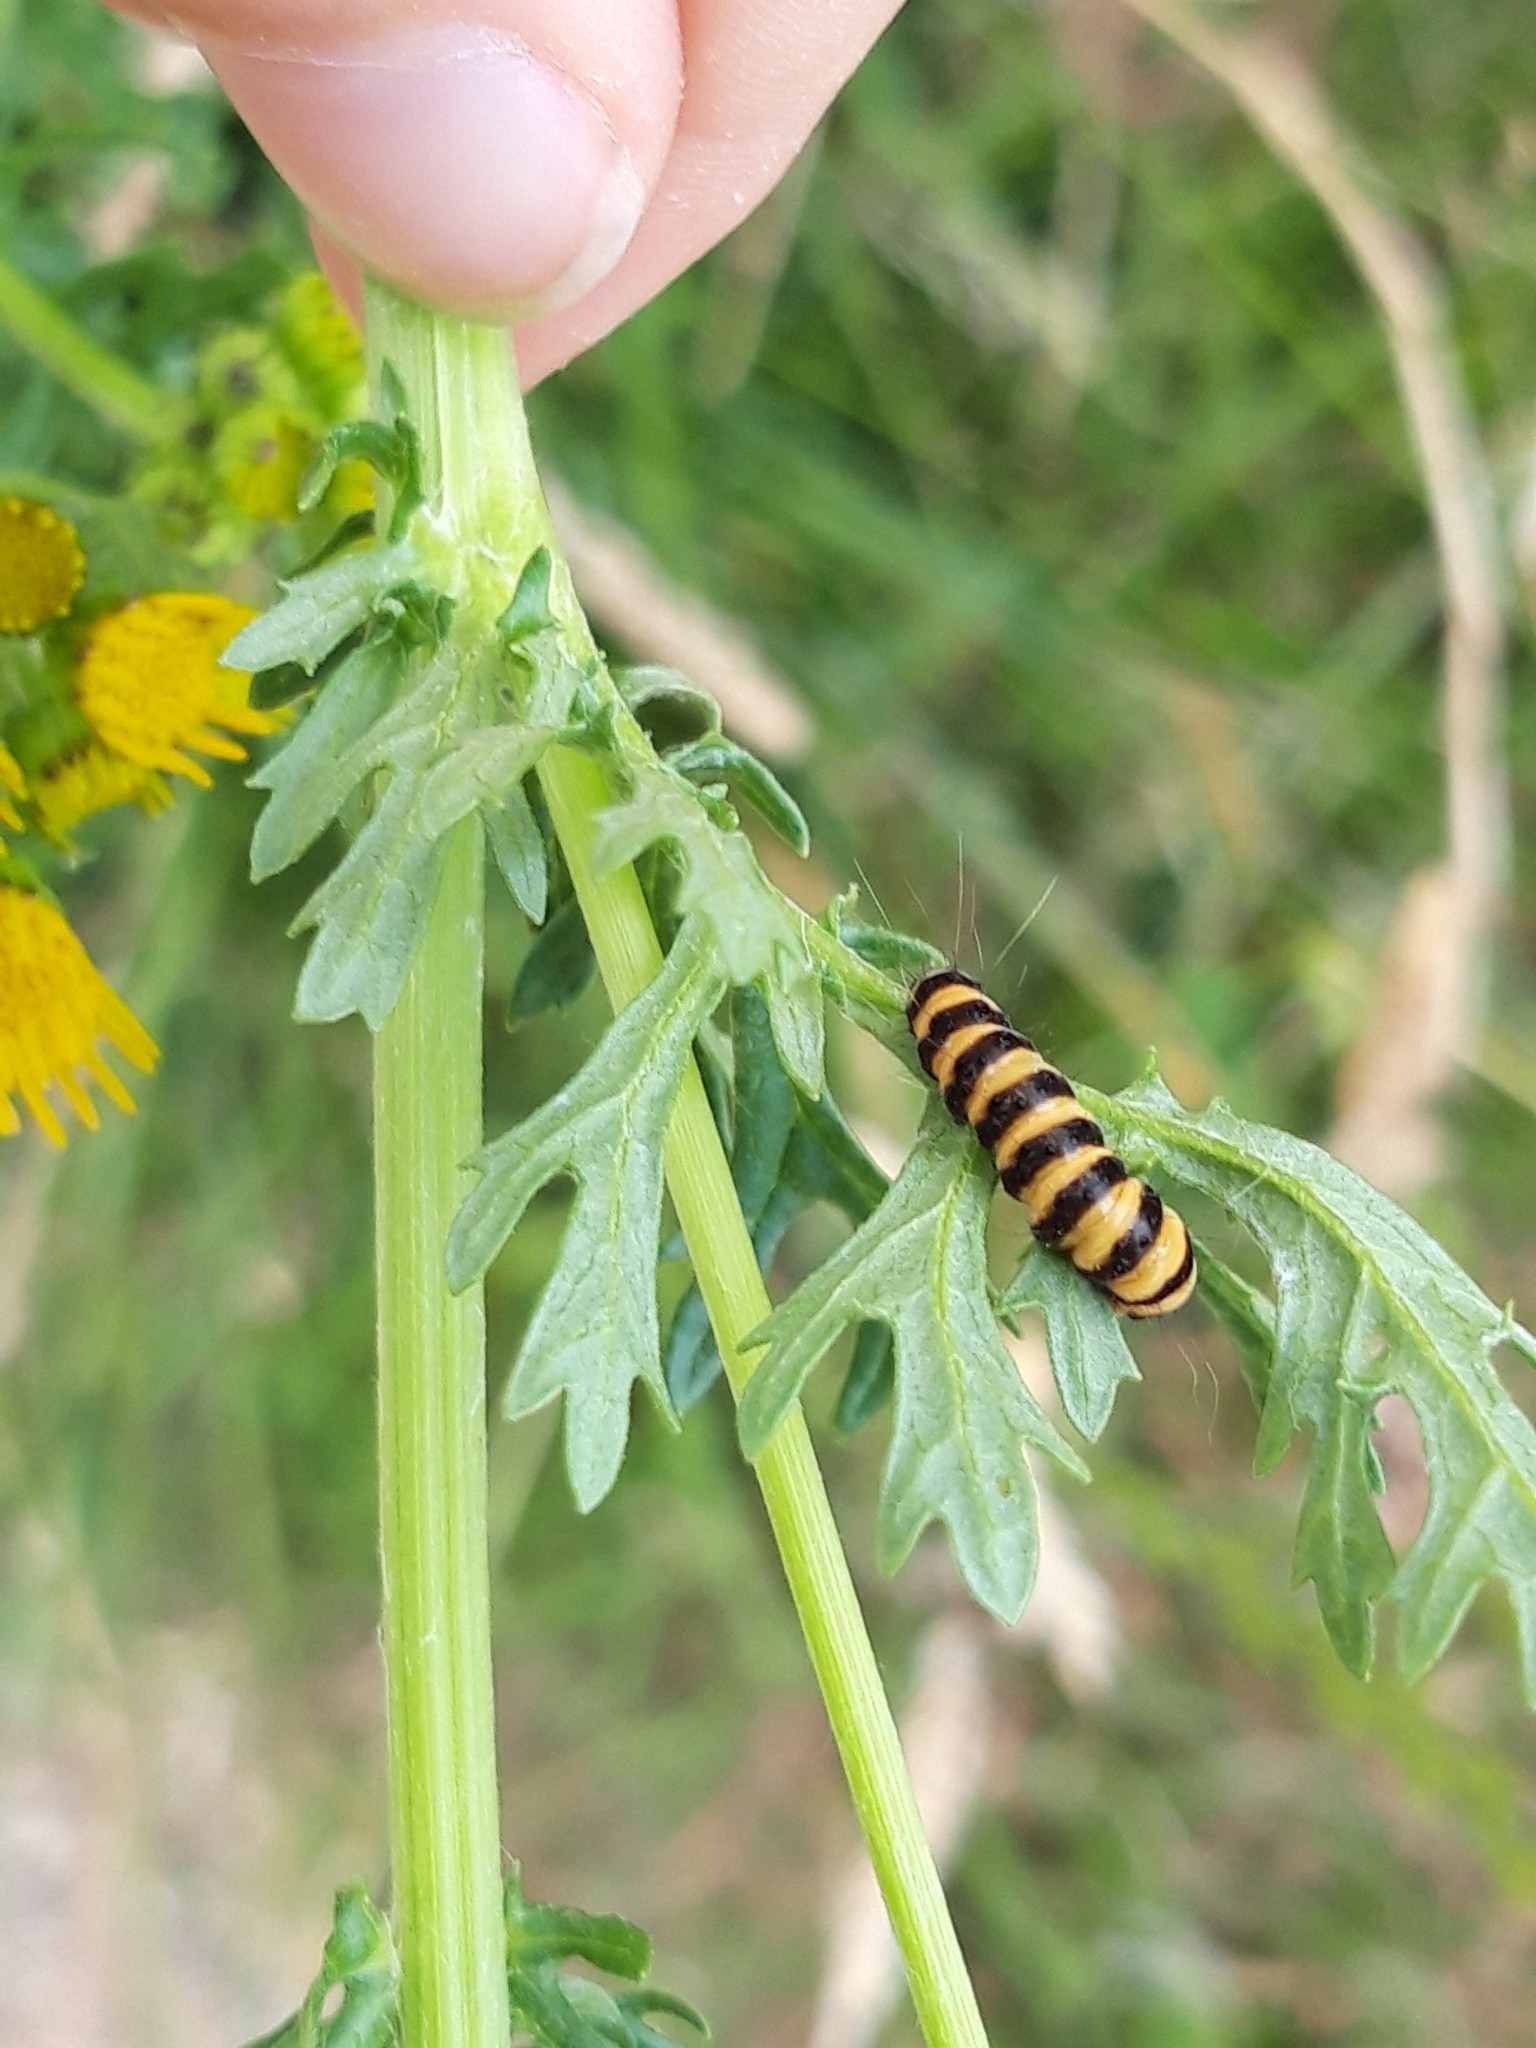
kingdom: Animalia
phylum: Arthropoda
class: Insecta
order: Lepidoptera
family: Erebidae
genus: Tyria
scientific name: Tyria jacobaeae
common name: Cinnabar
